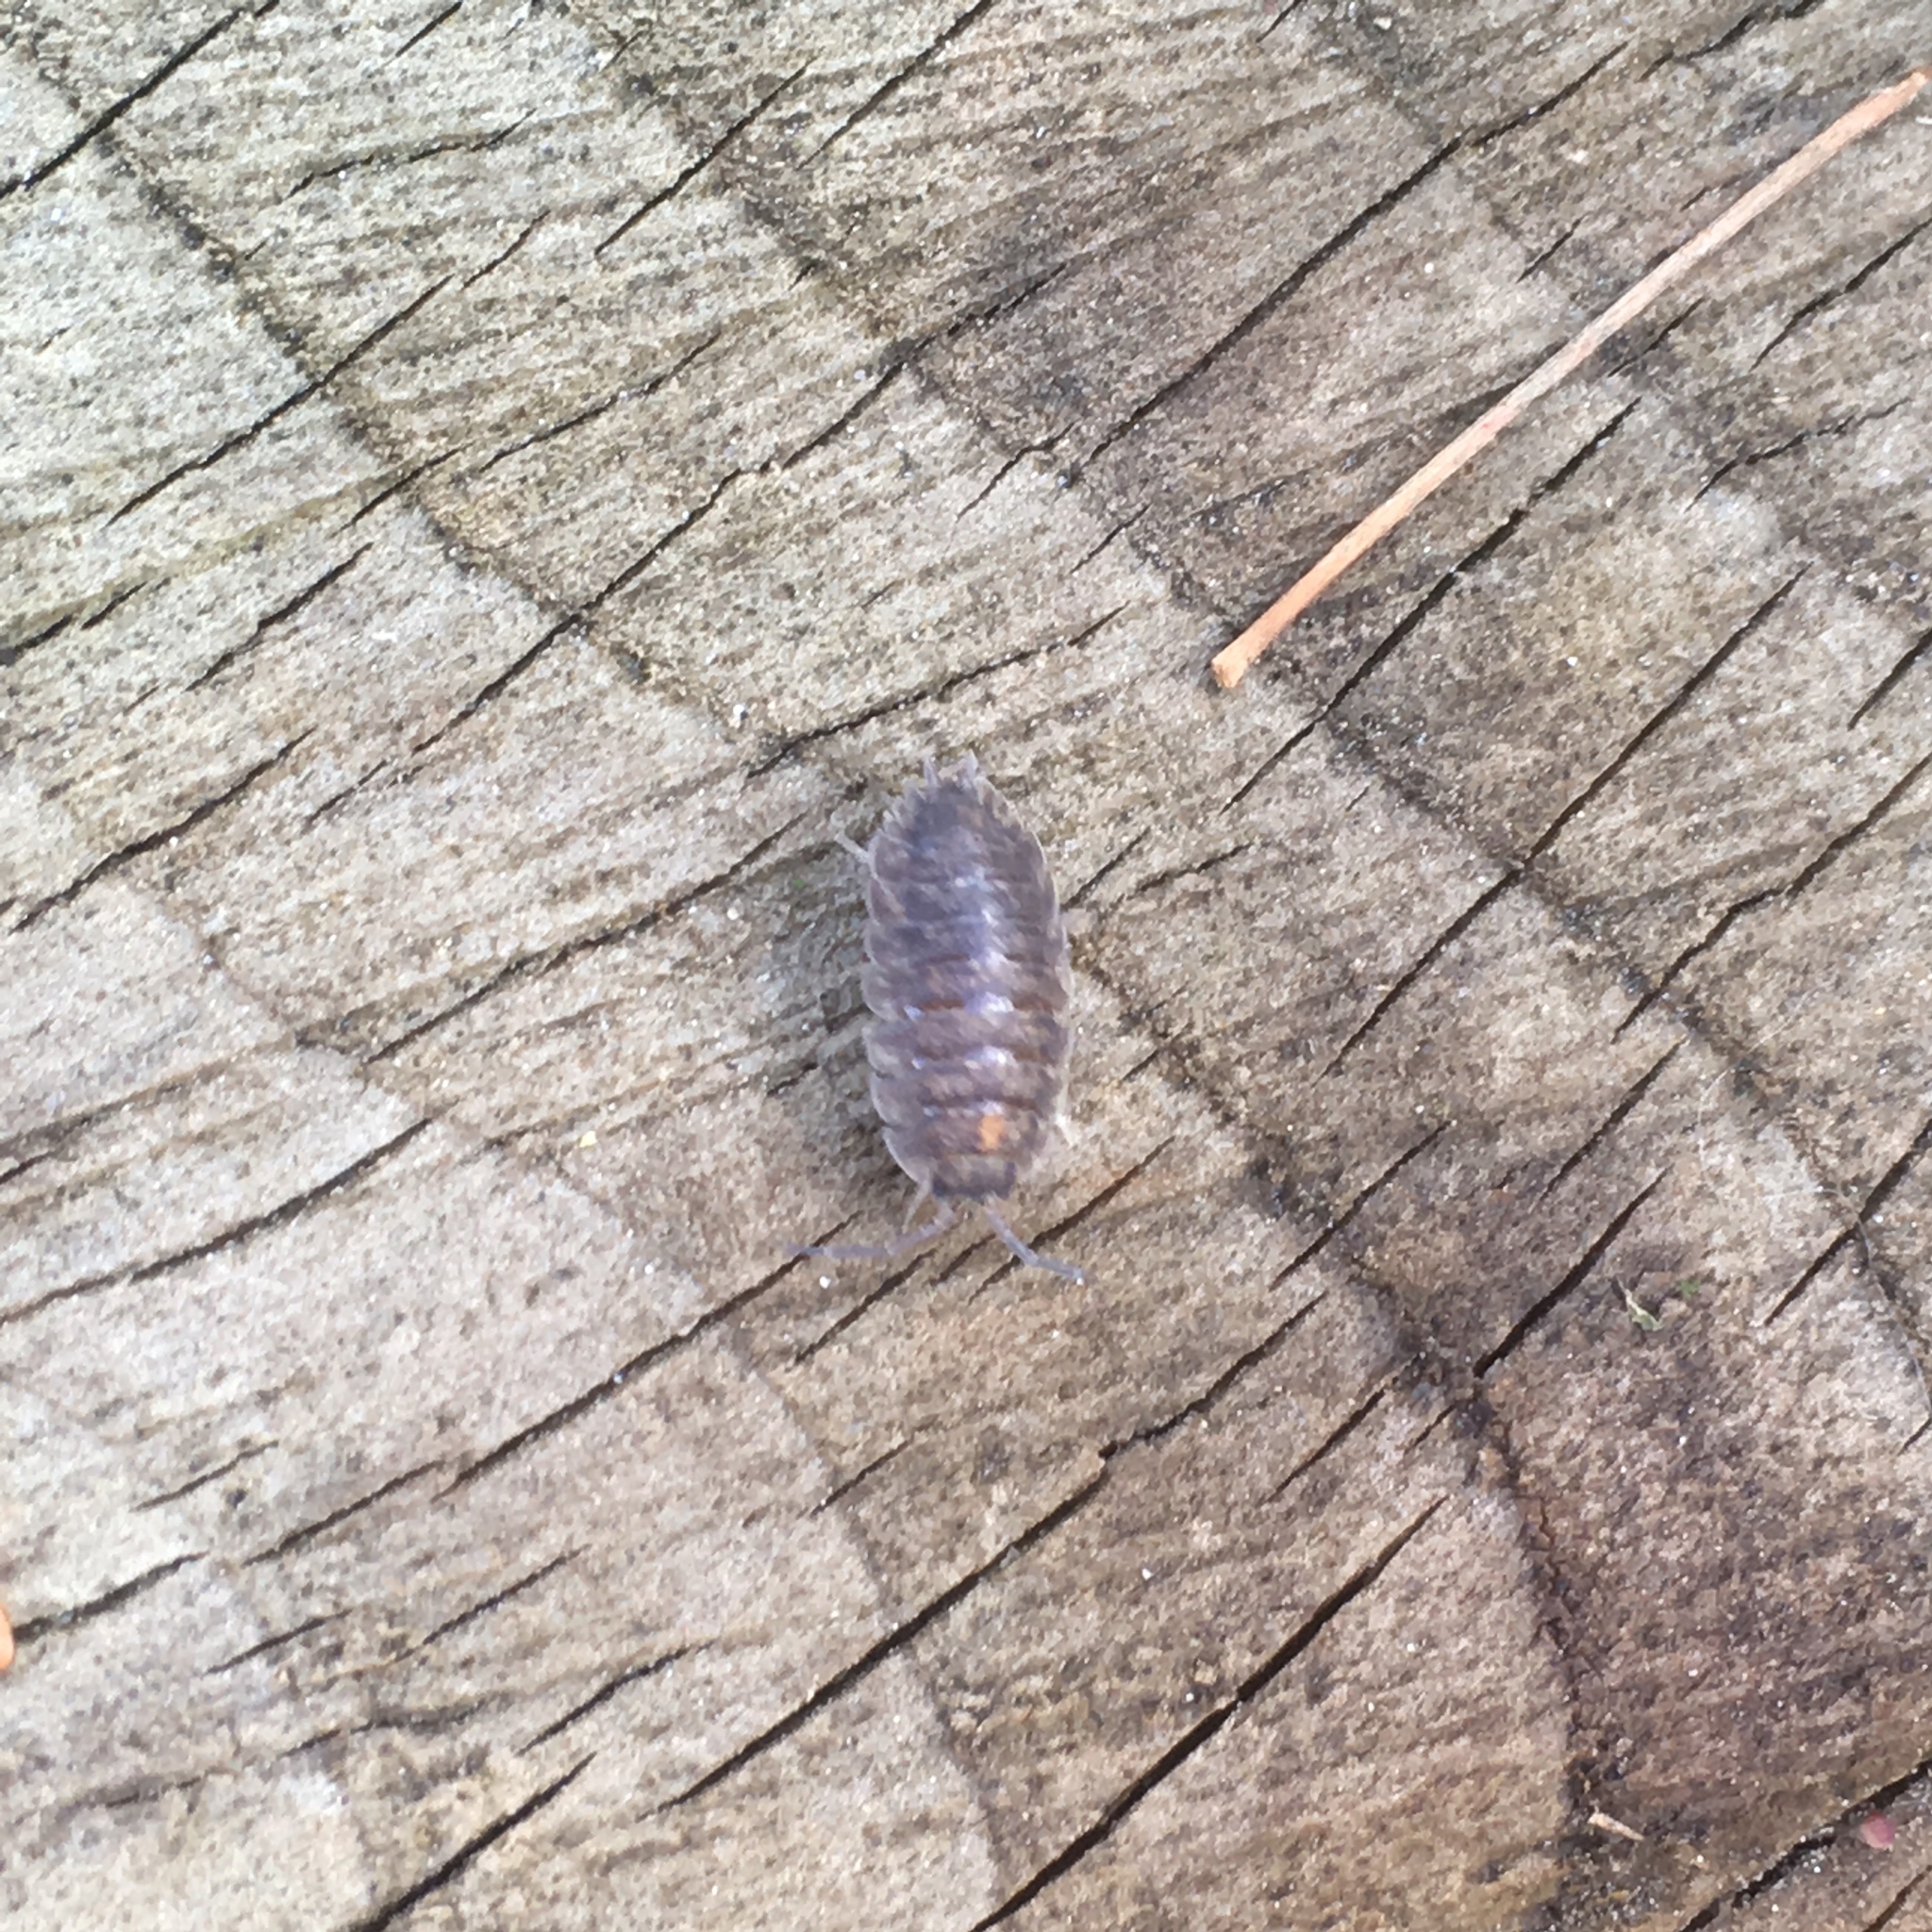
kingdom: Animalia
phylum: Arthropoda
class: Malacostraca
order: Isopoda
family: Porcellionidae
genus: Porcellio
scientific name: Porcellio scaber
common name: Common rough woodlouse
